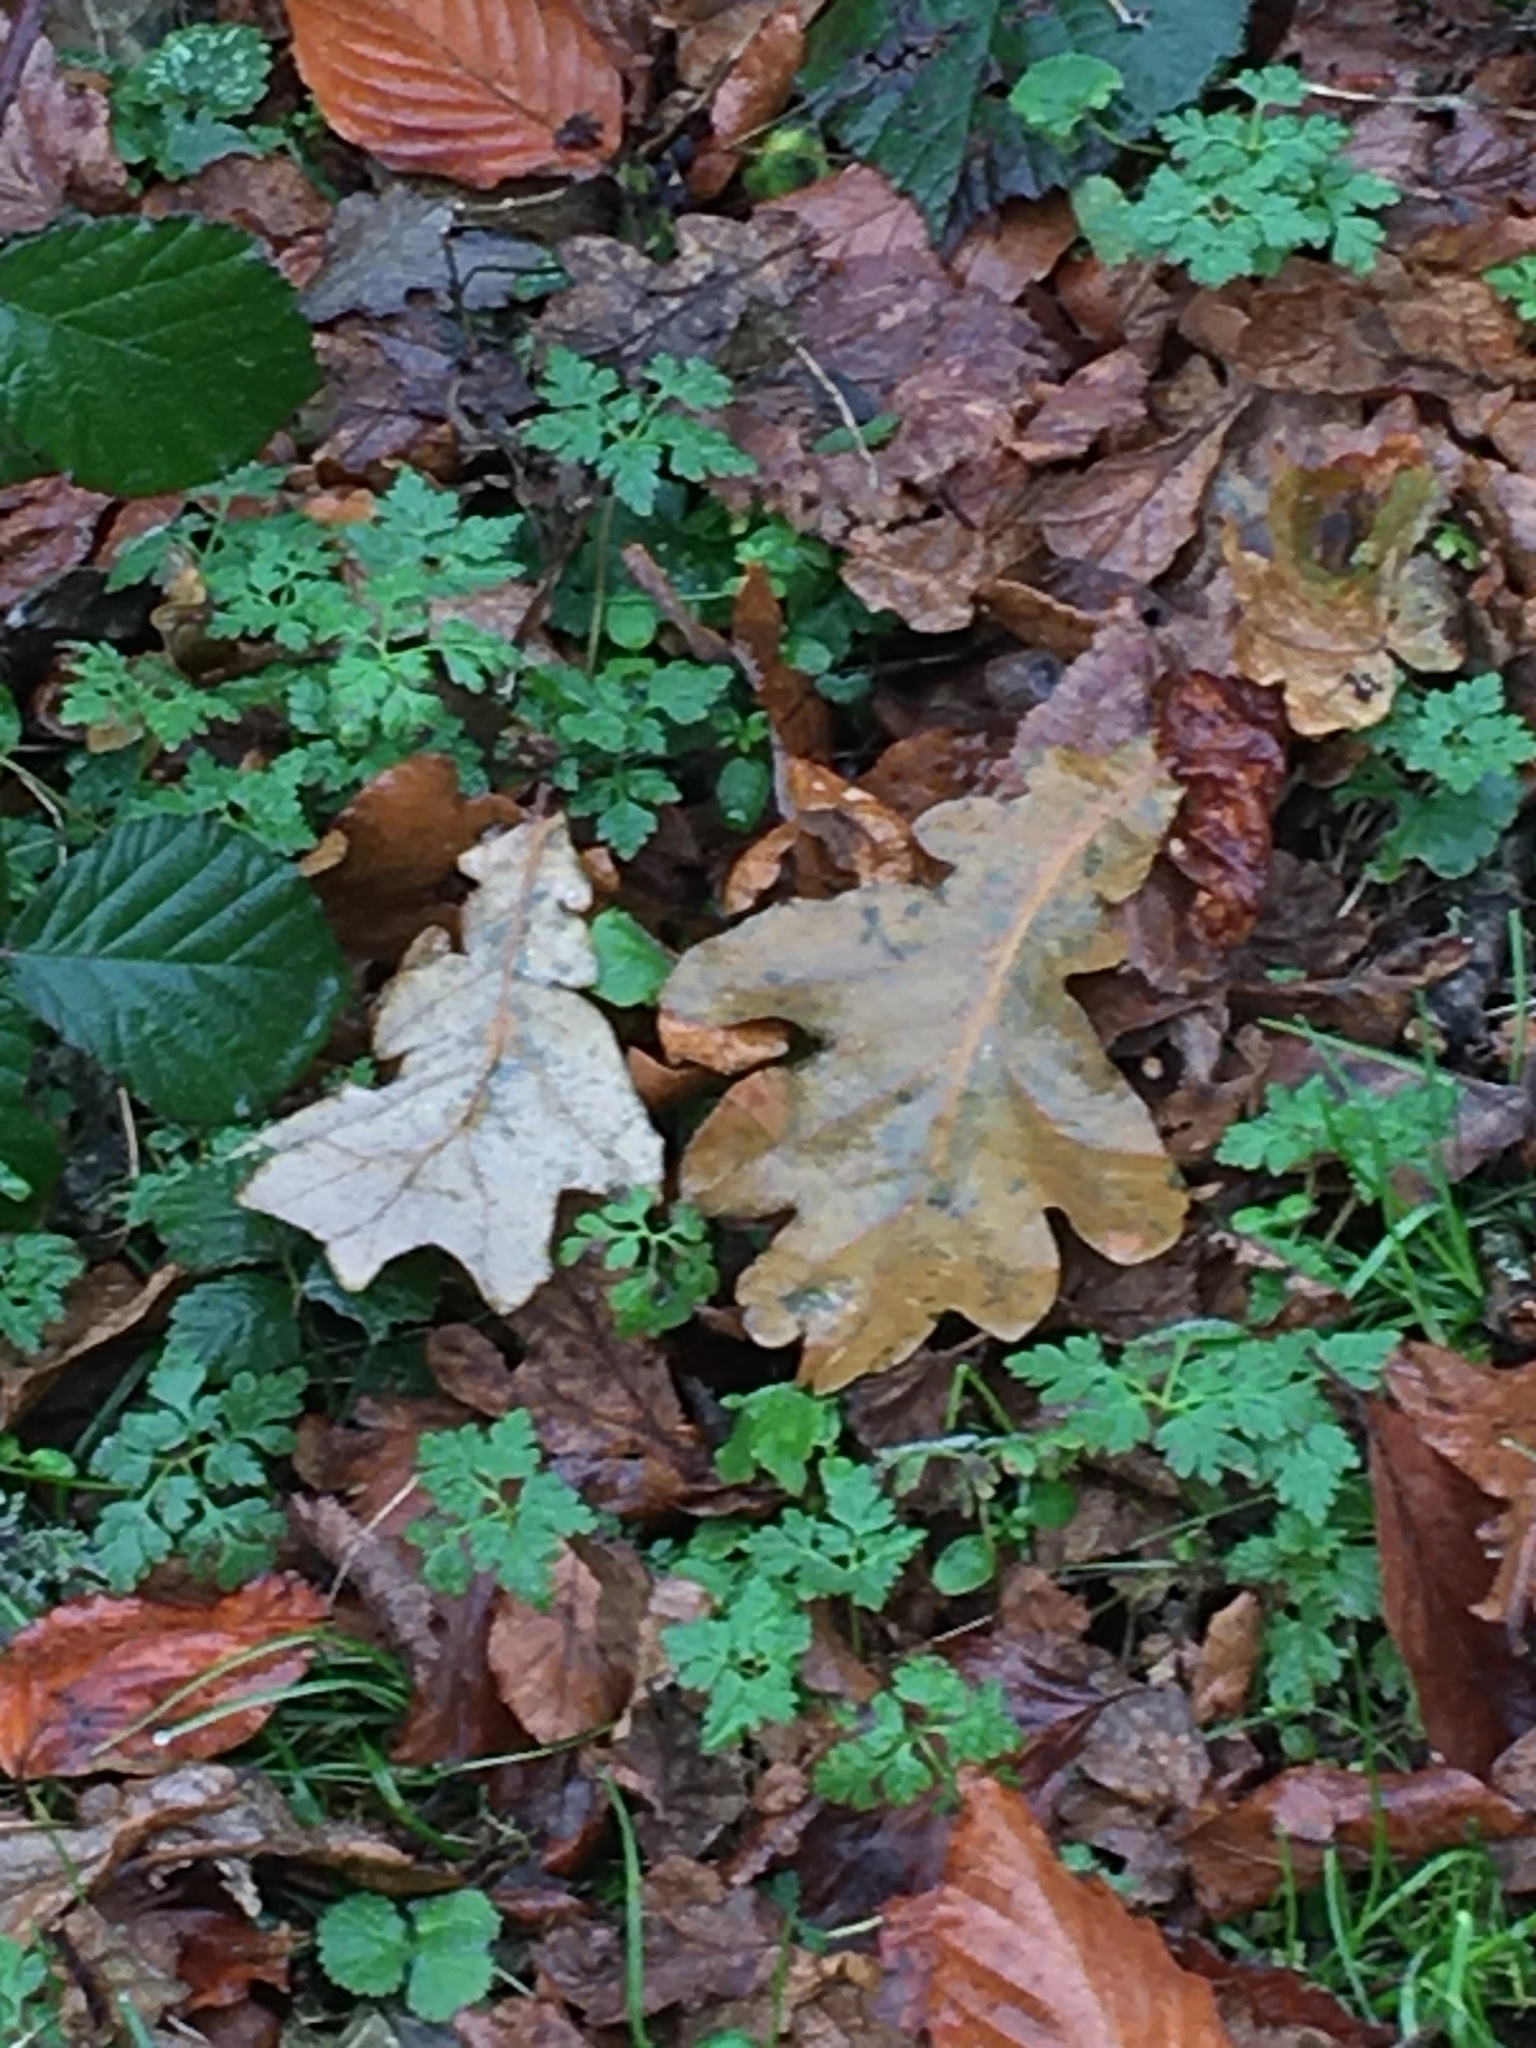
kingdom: Plantae
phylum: Tracheophyta
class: Magnoliopsida
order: Fagales
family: Fagaceae
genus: Quercus
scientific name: Quercus robur
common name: Pedunculate oak
